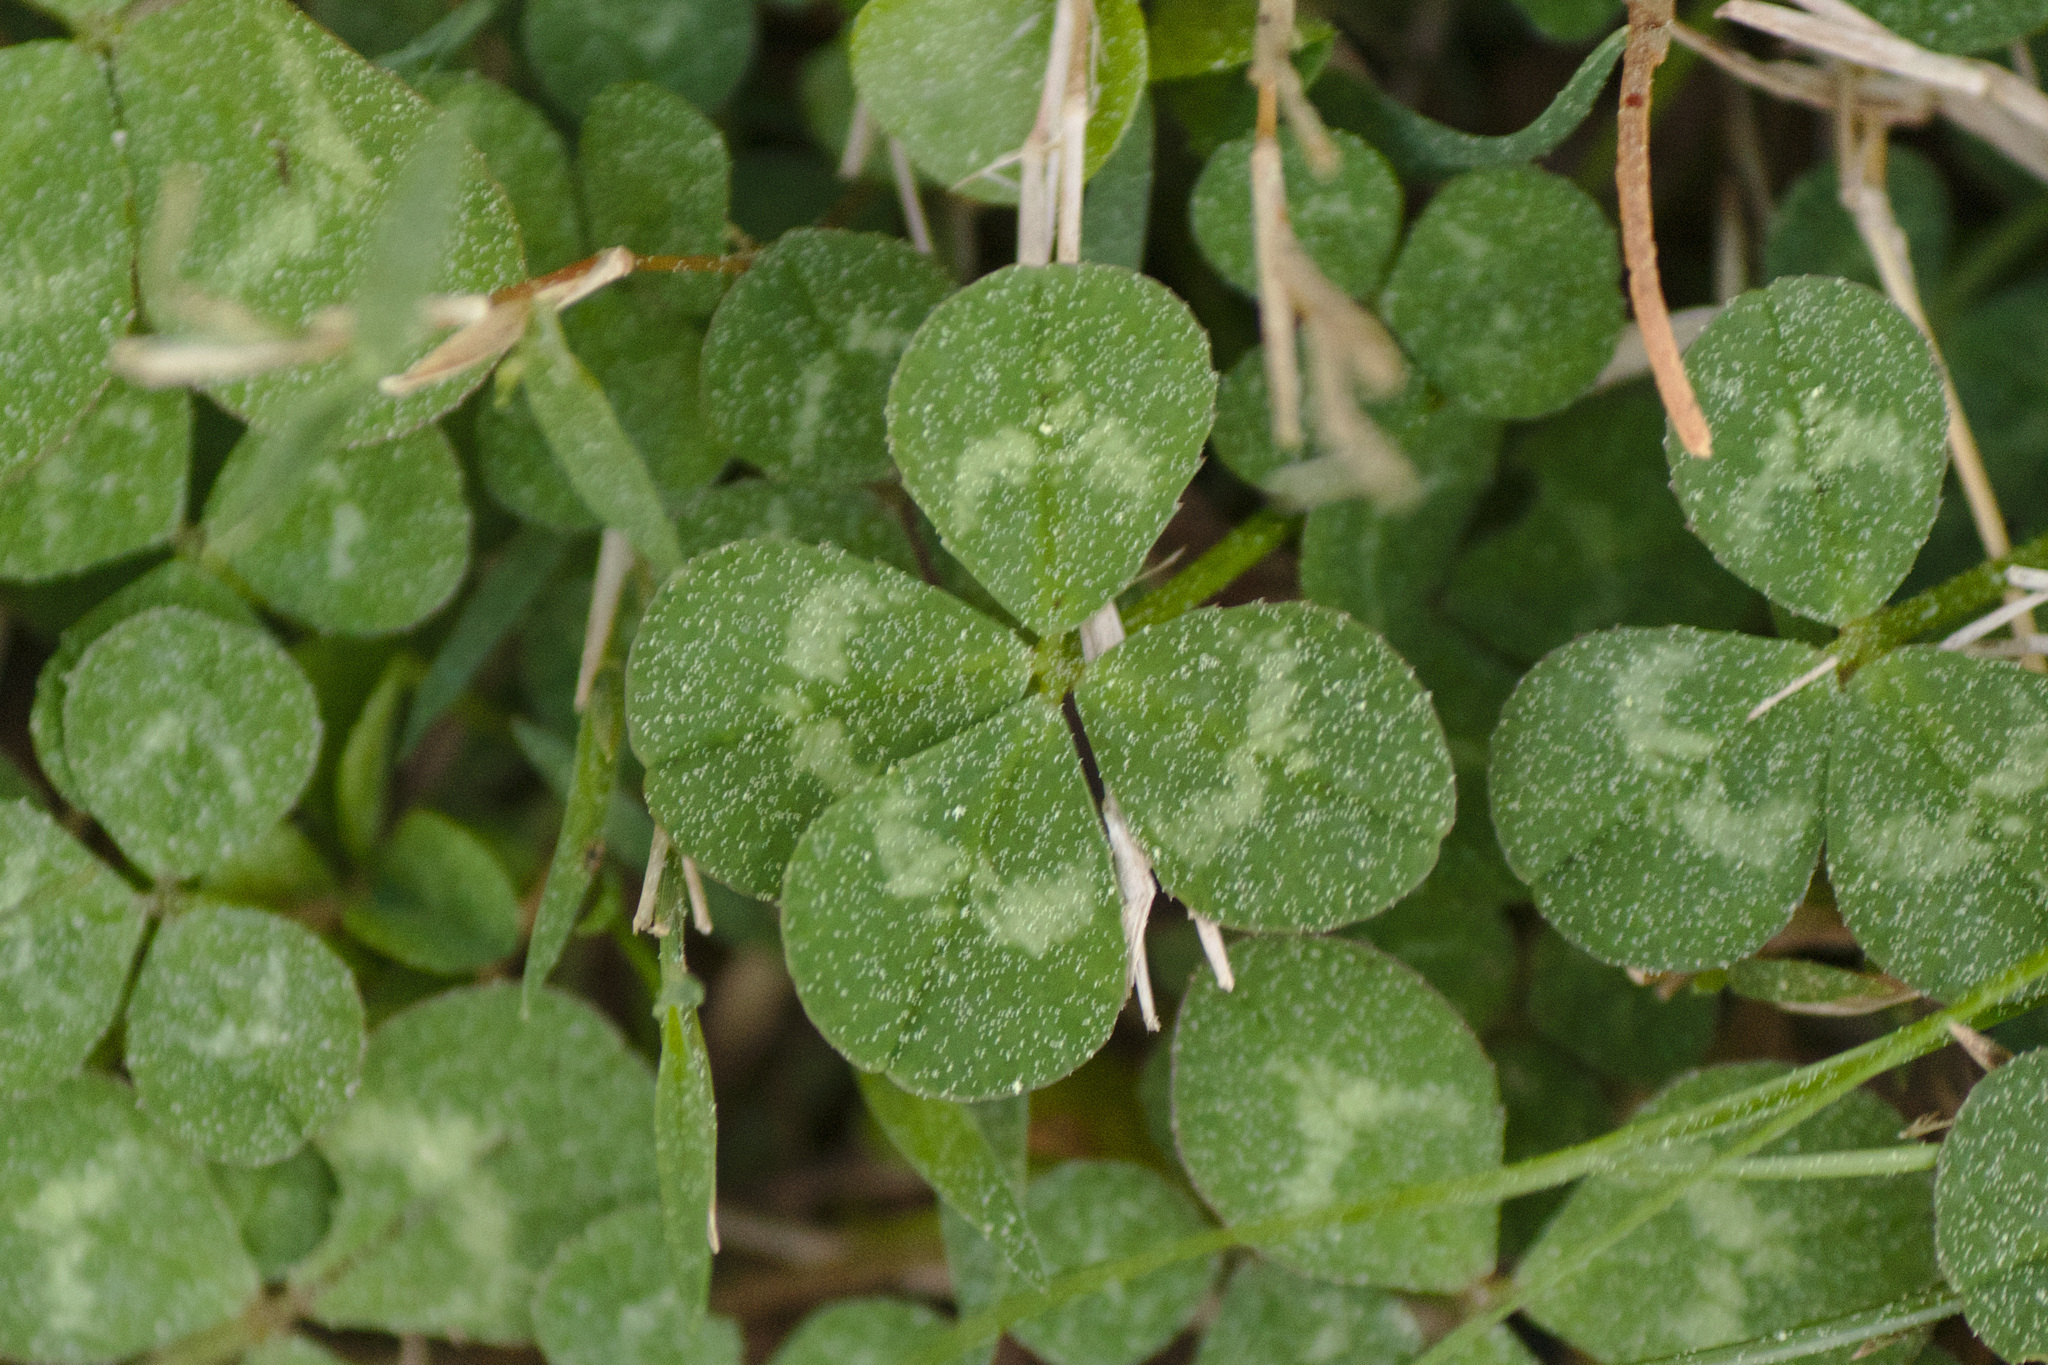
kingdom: Plantae
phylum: Tracheophyta
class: Magnoliopsida
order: Fabales
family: Fabaceae
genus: Trifolium
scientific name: Trifolium repens
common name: White clover
